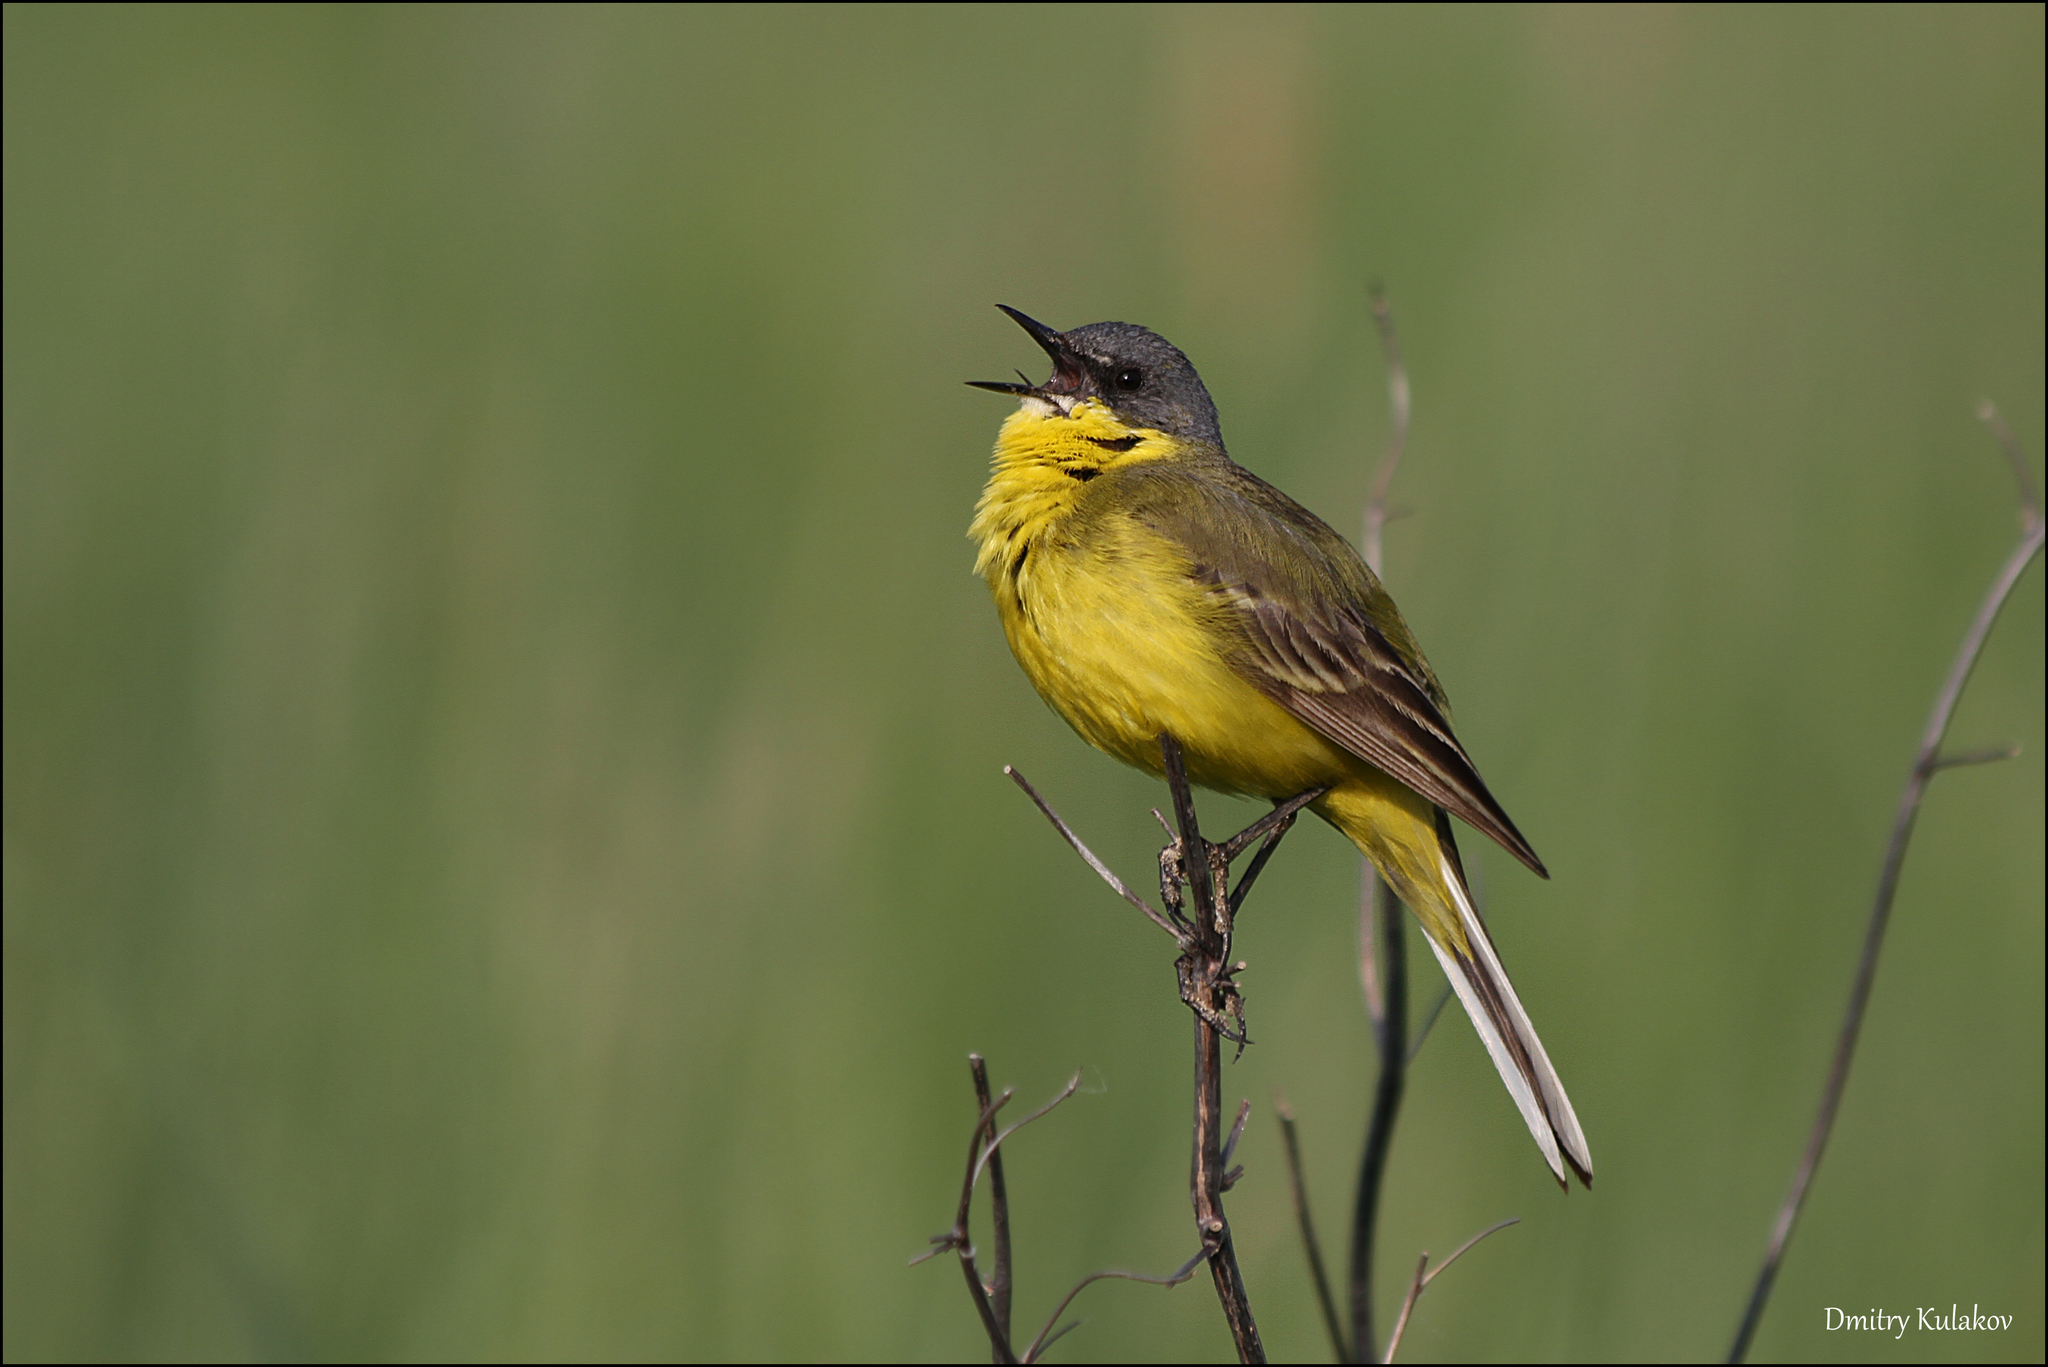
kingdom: Animalia
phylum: Chordata
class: Aves
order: Passeriformes
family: Motacillidae
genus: Motacilla
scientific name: Motacilla flava
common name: Western yellow wagtail
